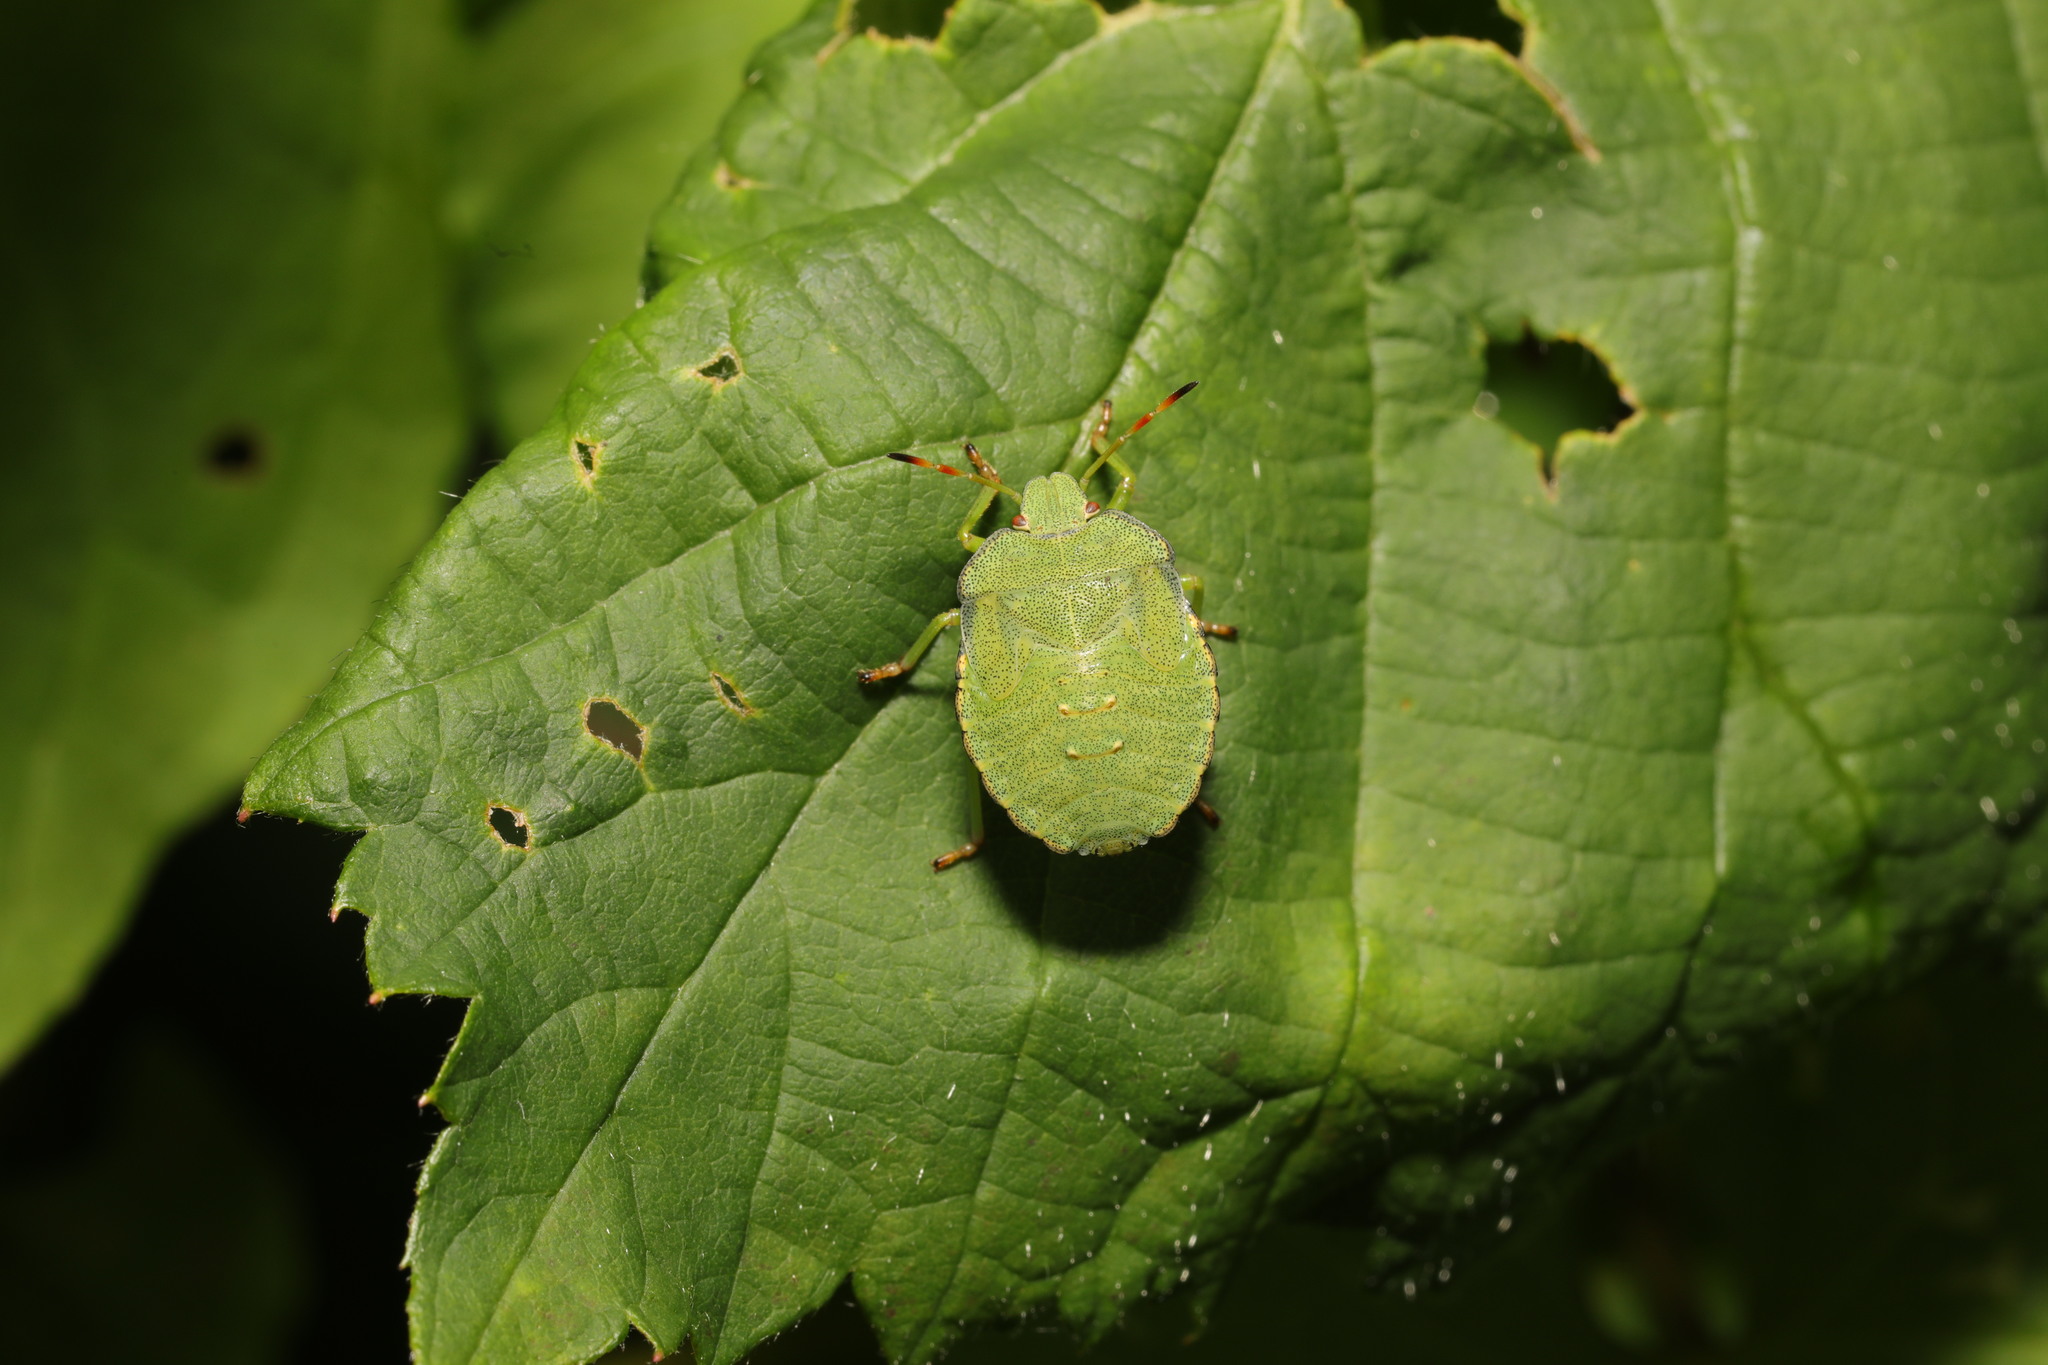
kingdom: Animalia
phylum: Arthropoda
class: Insecta
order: Hemiptera
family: Pentatomidae
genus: Palomena
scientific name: Palomena prasina
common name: Green shieldbug
